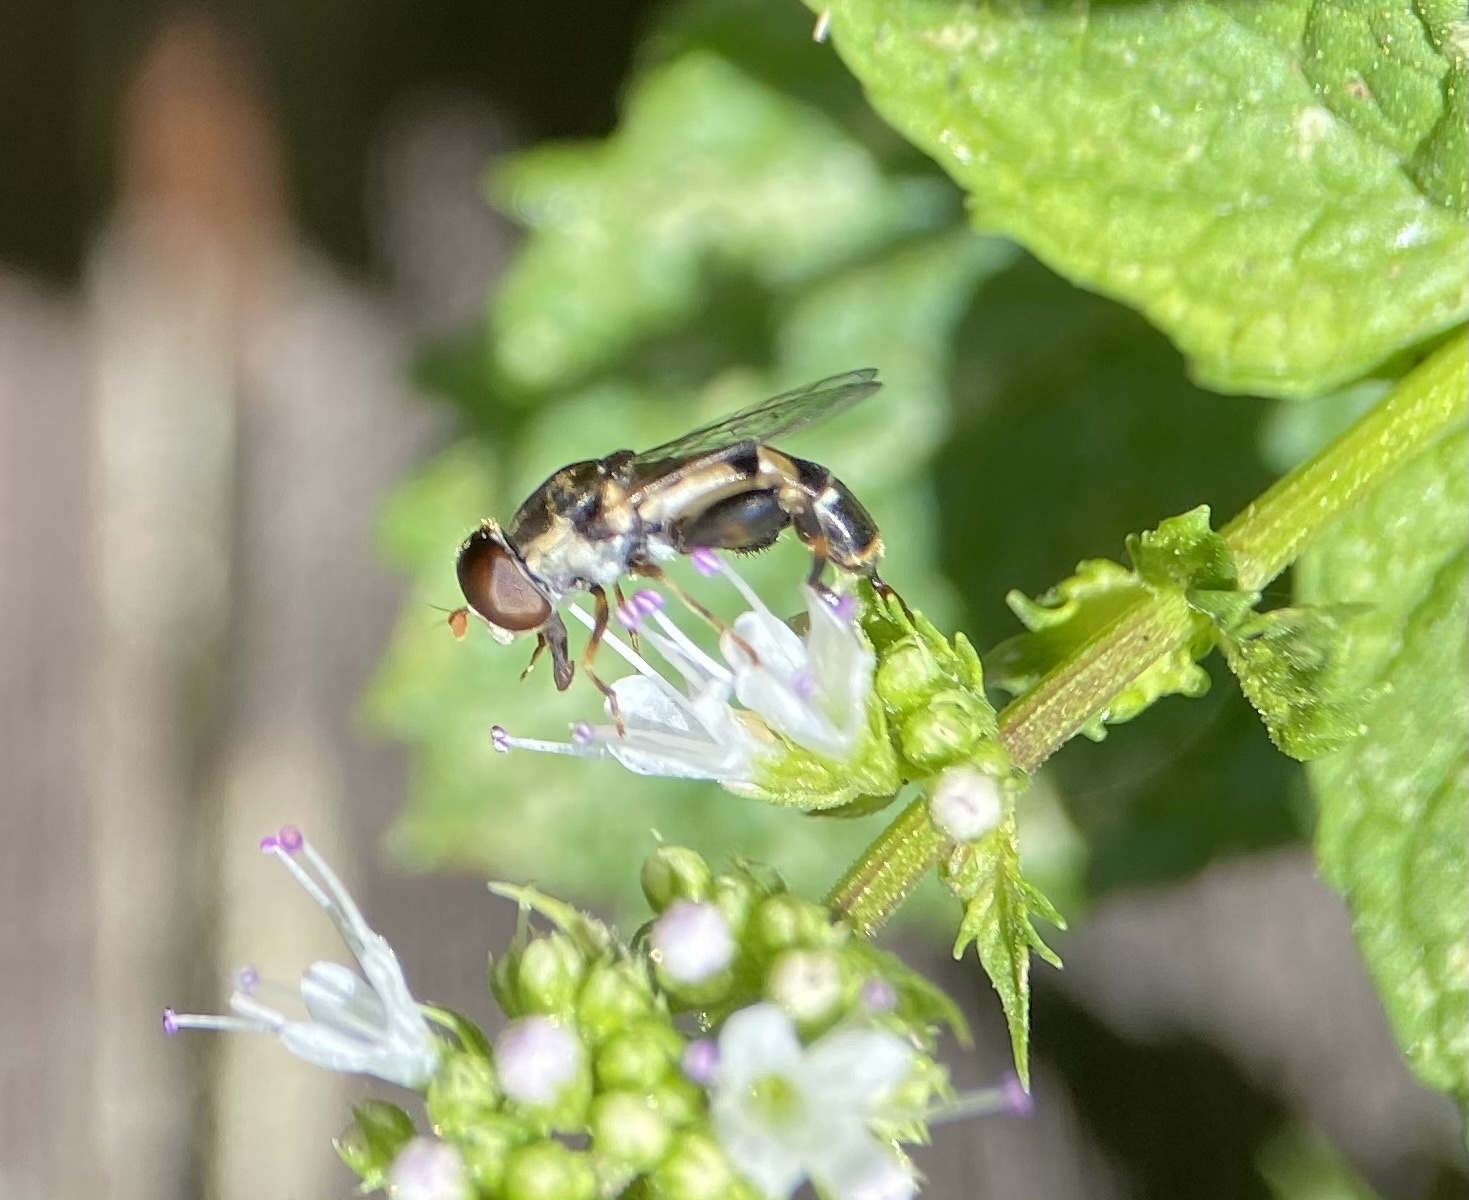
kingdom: Animalia
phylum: Arthropoda
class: Insecta
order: Diptera
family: Syrphidae
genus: Syritta
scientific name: Syritta pipiens
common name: Hover fly
